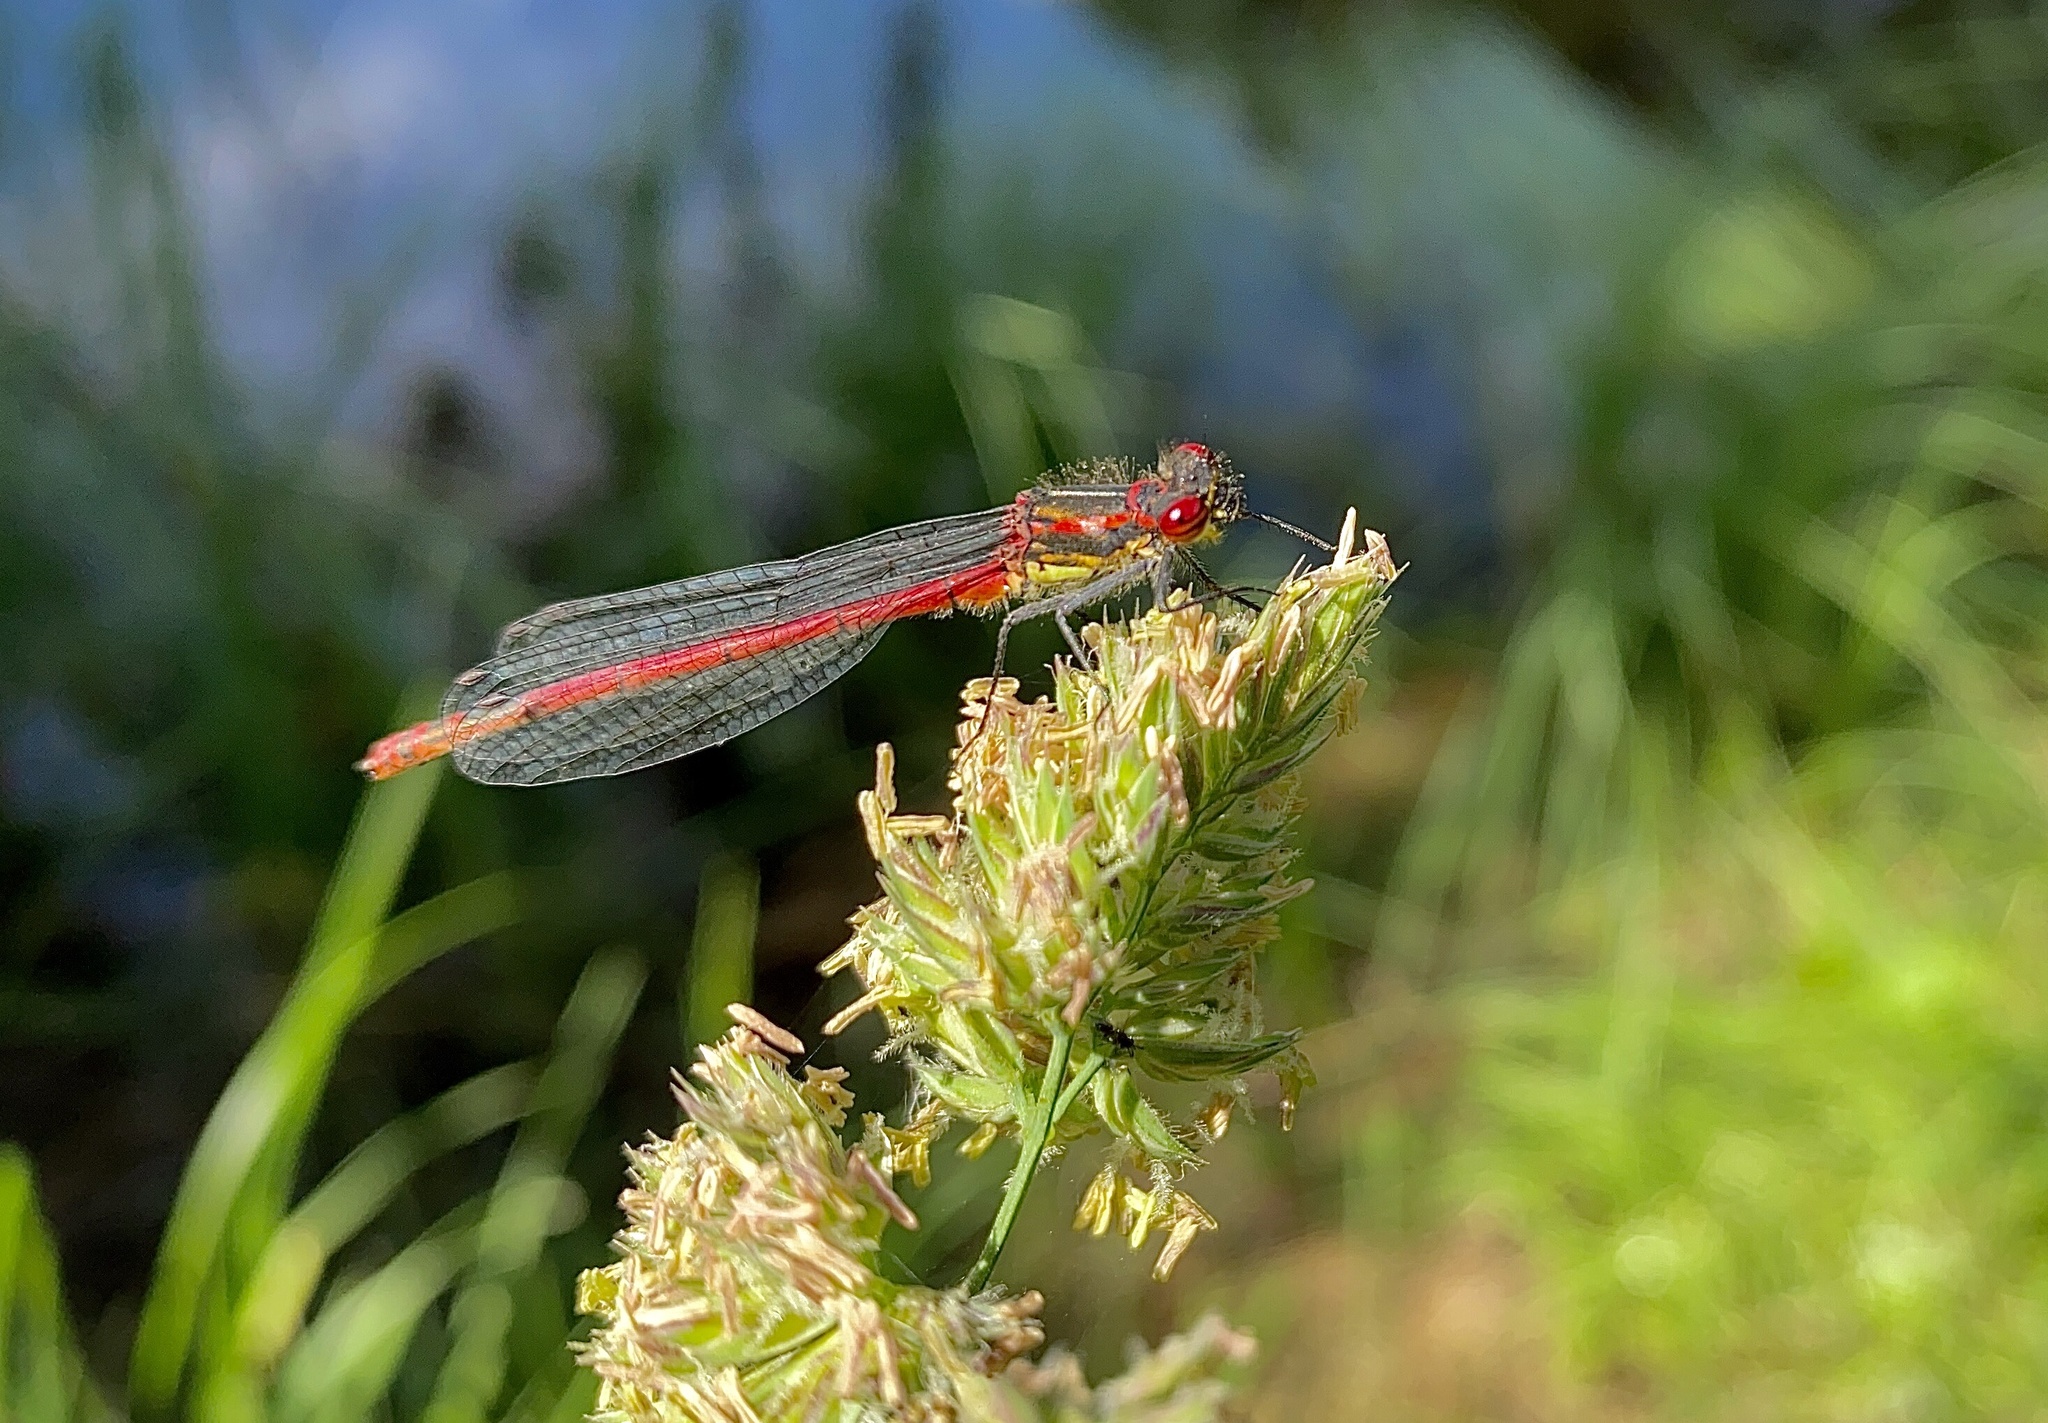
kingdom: Animalia
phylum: Arthropoda
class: Insecta
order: Odonata
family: Coenagrionidae
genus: Pyrrhosoma
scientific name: Pyrrhosoma nymphula
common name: Large red damsel
